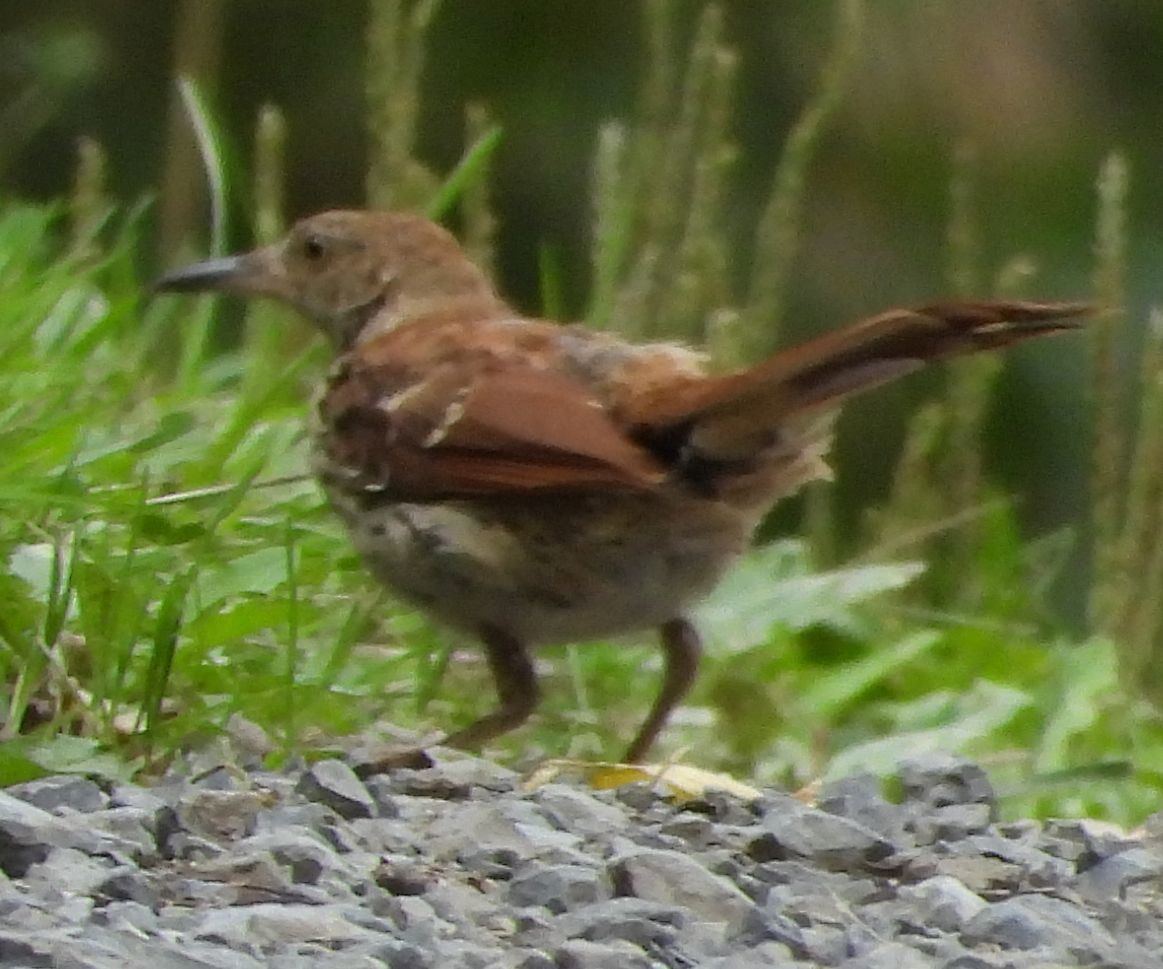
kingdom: Animalia
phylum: Chordata
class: Aves
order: Passeriformes
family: Mimidae
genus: Toxostoma
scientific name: Toxostoma rufum
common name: Brown thrasher
